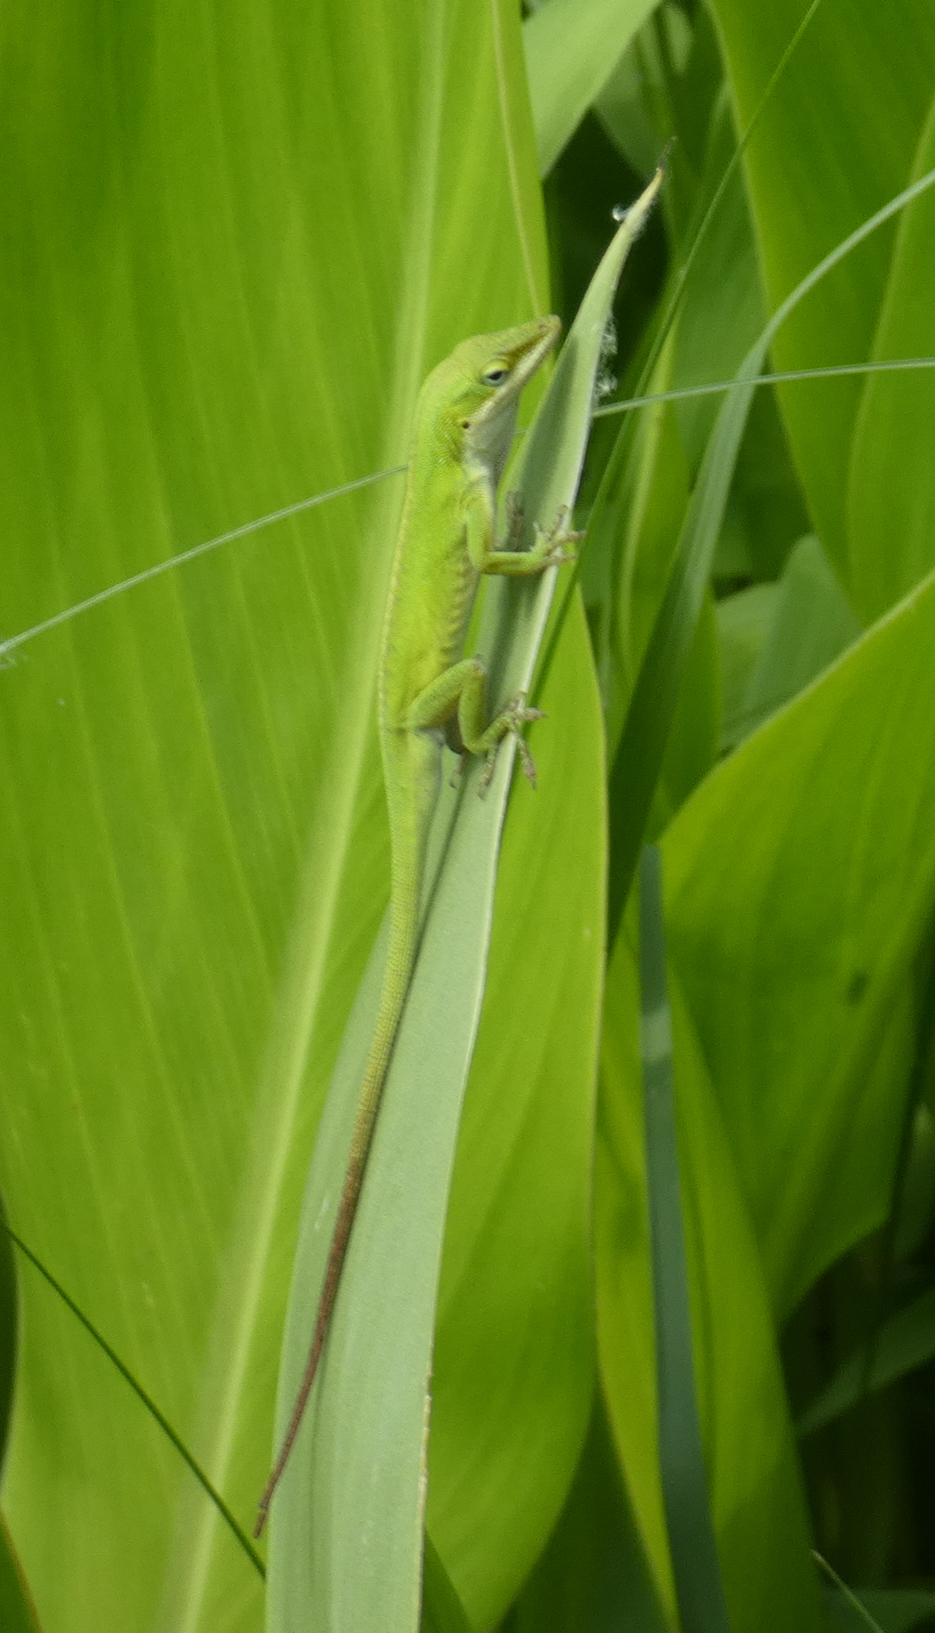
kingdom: Animalia
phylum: Chordata
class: Squamata
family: Dactyloidae
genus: Anolis
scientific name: Anolis carolinensis
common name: Green anole
